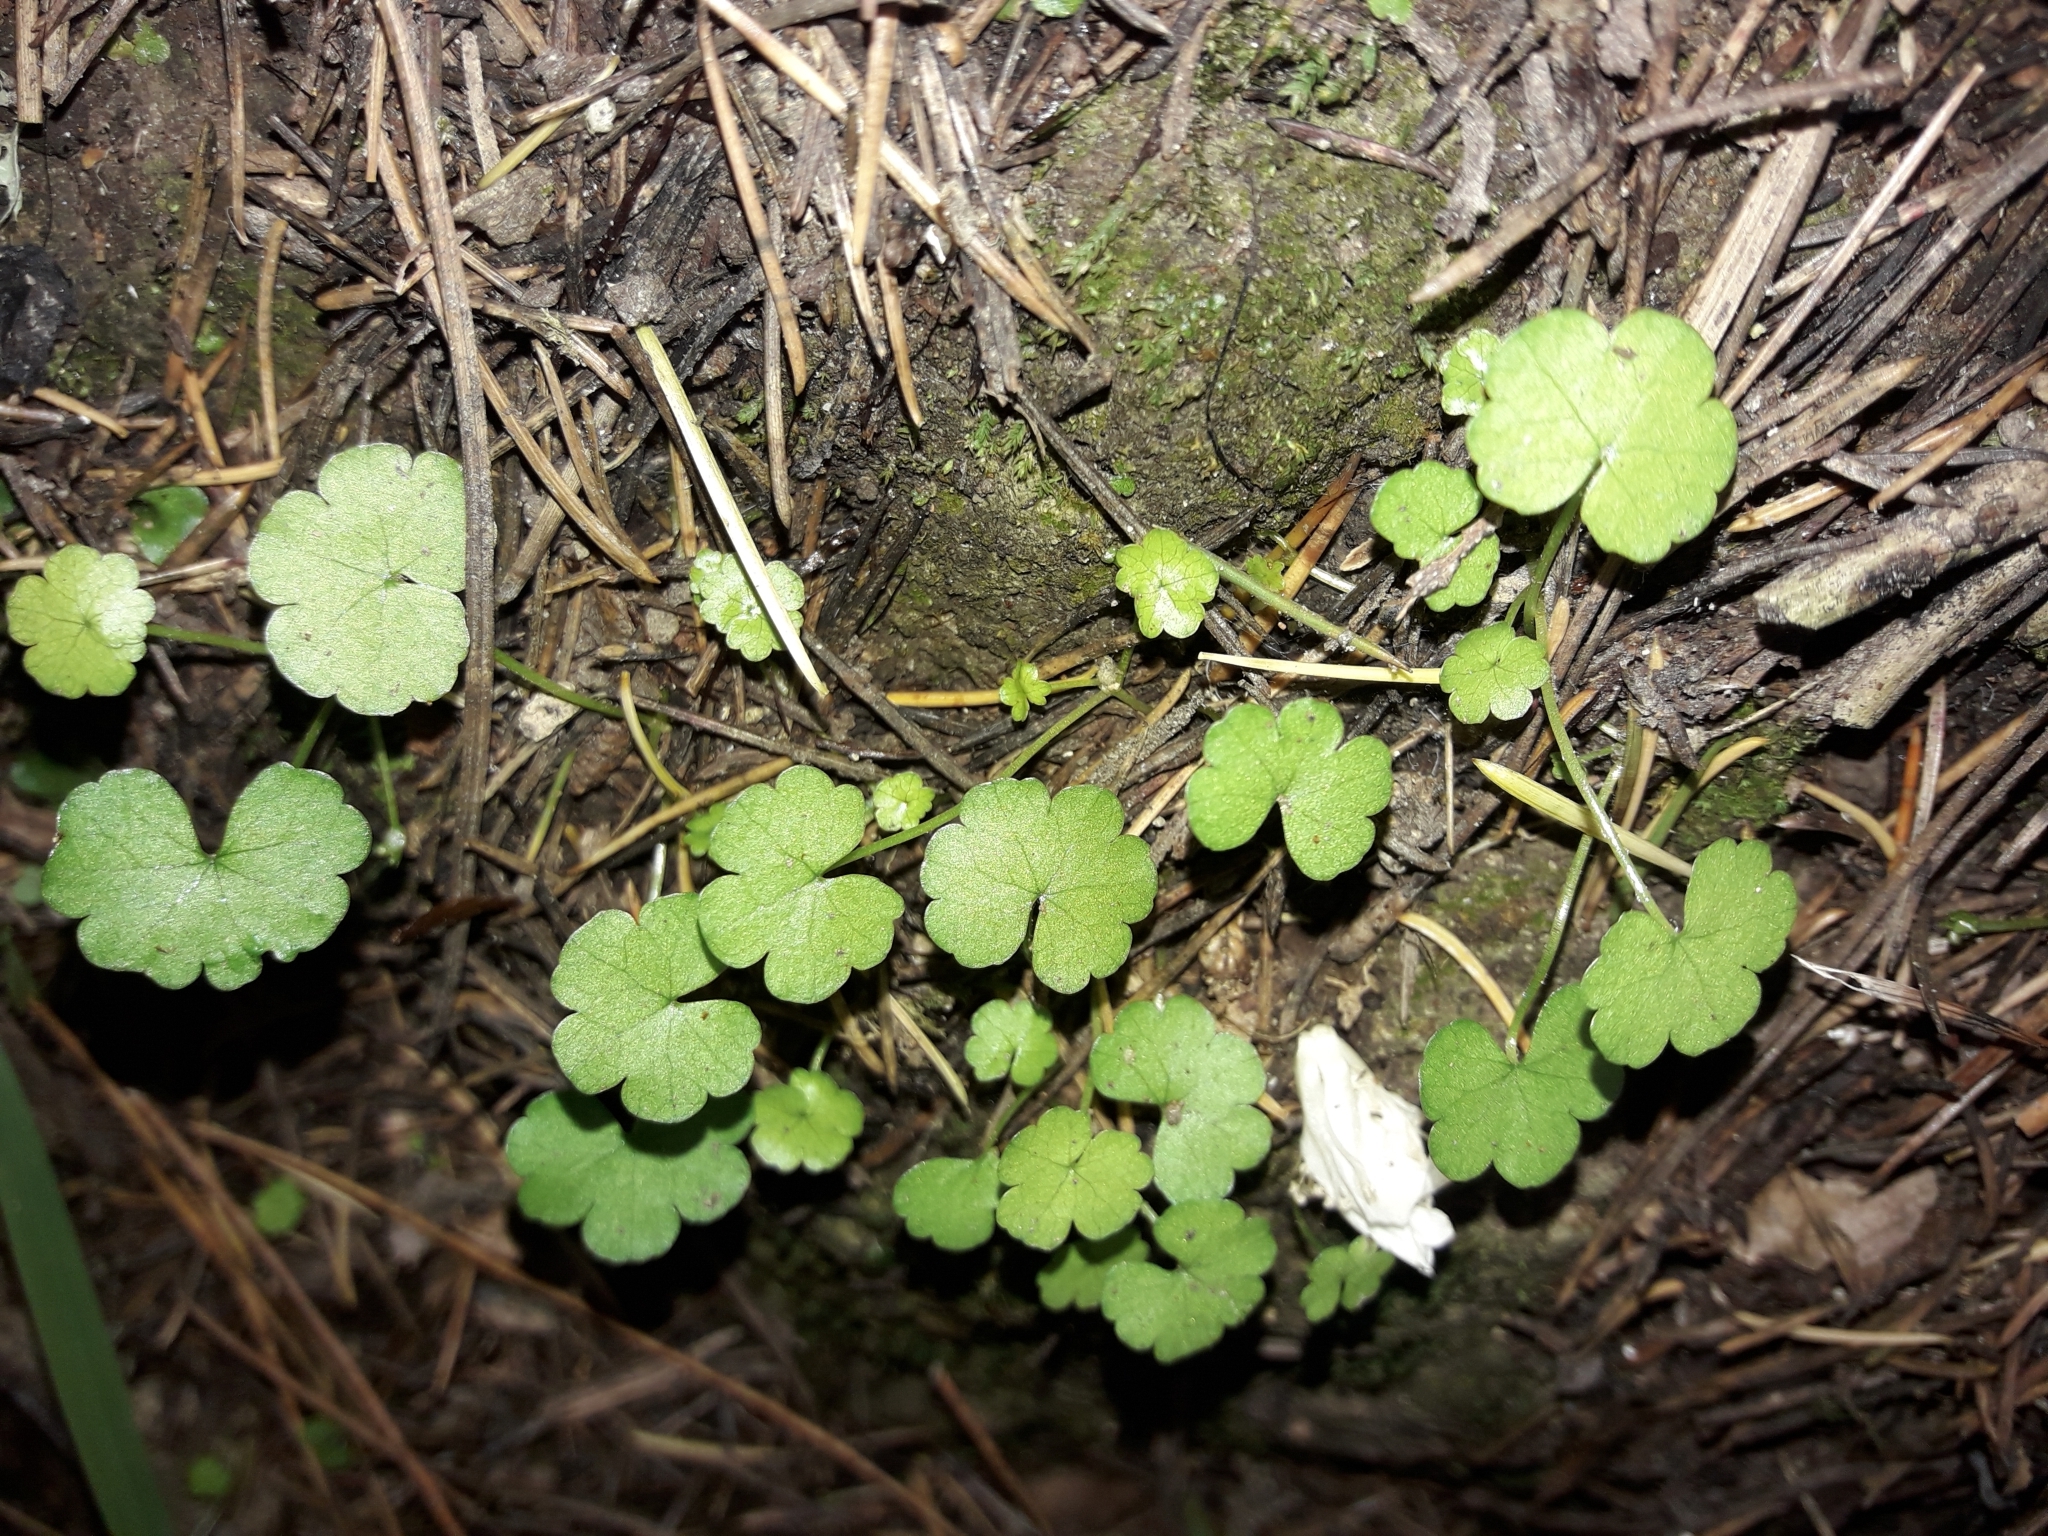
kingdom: Plantae
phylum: Tracheophyta
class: Magnoliopsida
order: Apiales
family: Araliaceae
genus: Hydrocotyle
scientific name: Hydrocotyle heteromeria
